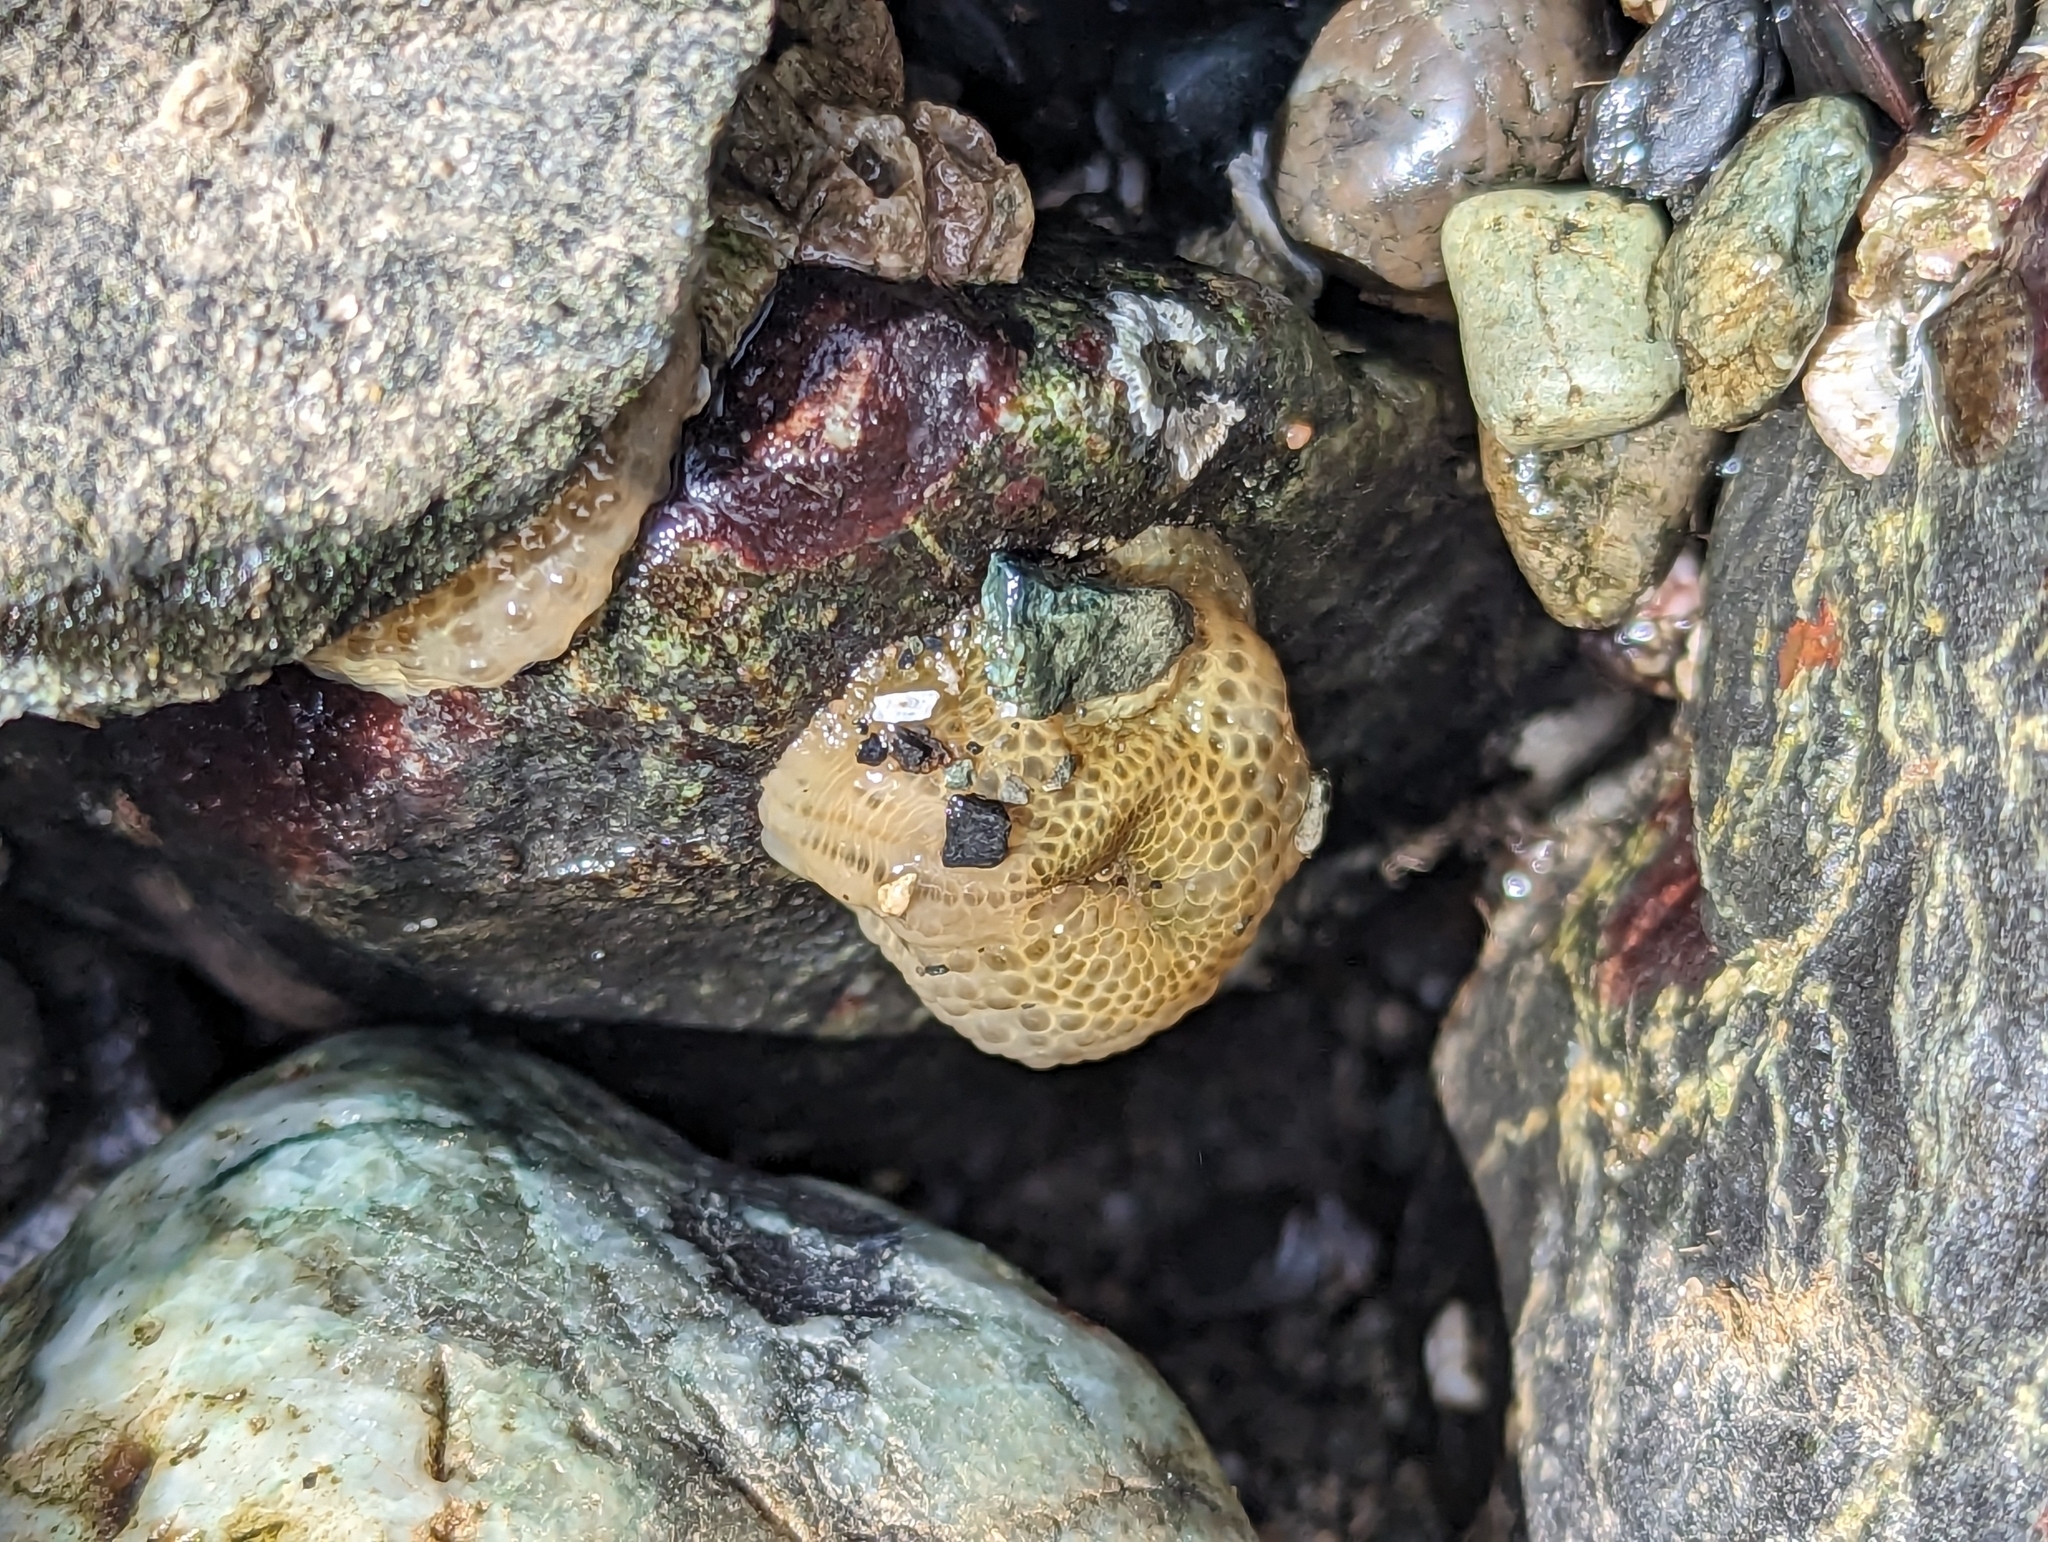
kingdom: Animalia
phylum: Cnidaria
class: Anthozoa
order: Actiniaria
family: Actiniidae
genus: Anthopleura
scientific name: Anthopleura elegantissima
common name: Clonal anemone
